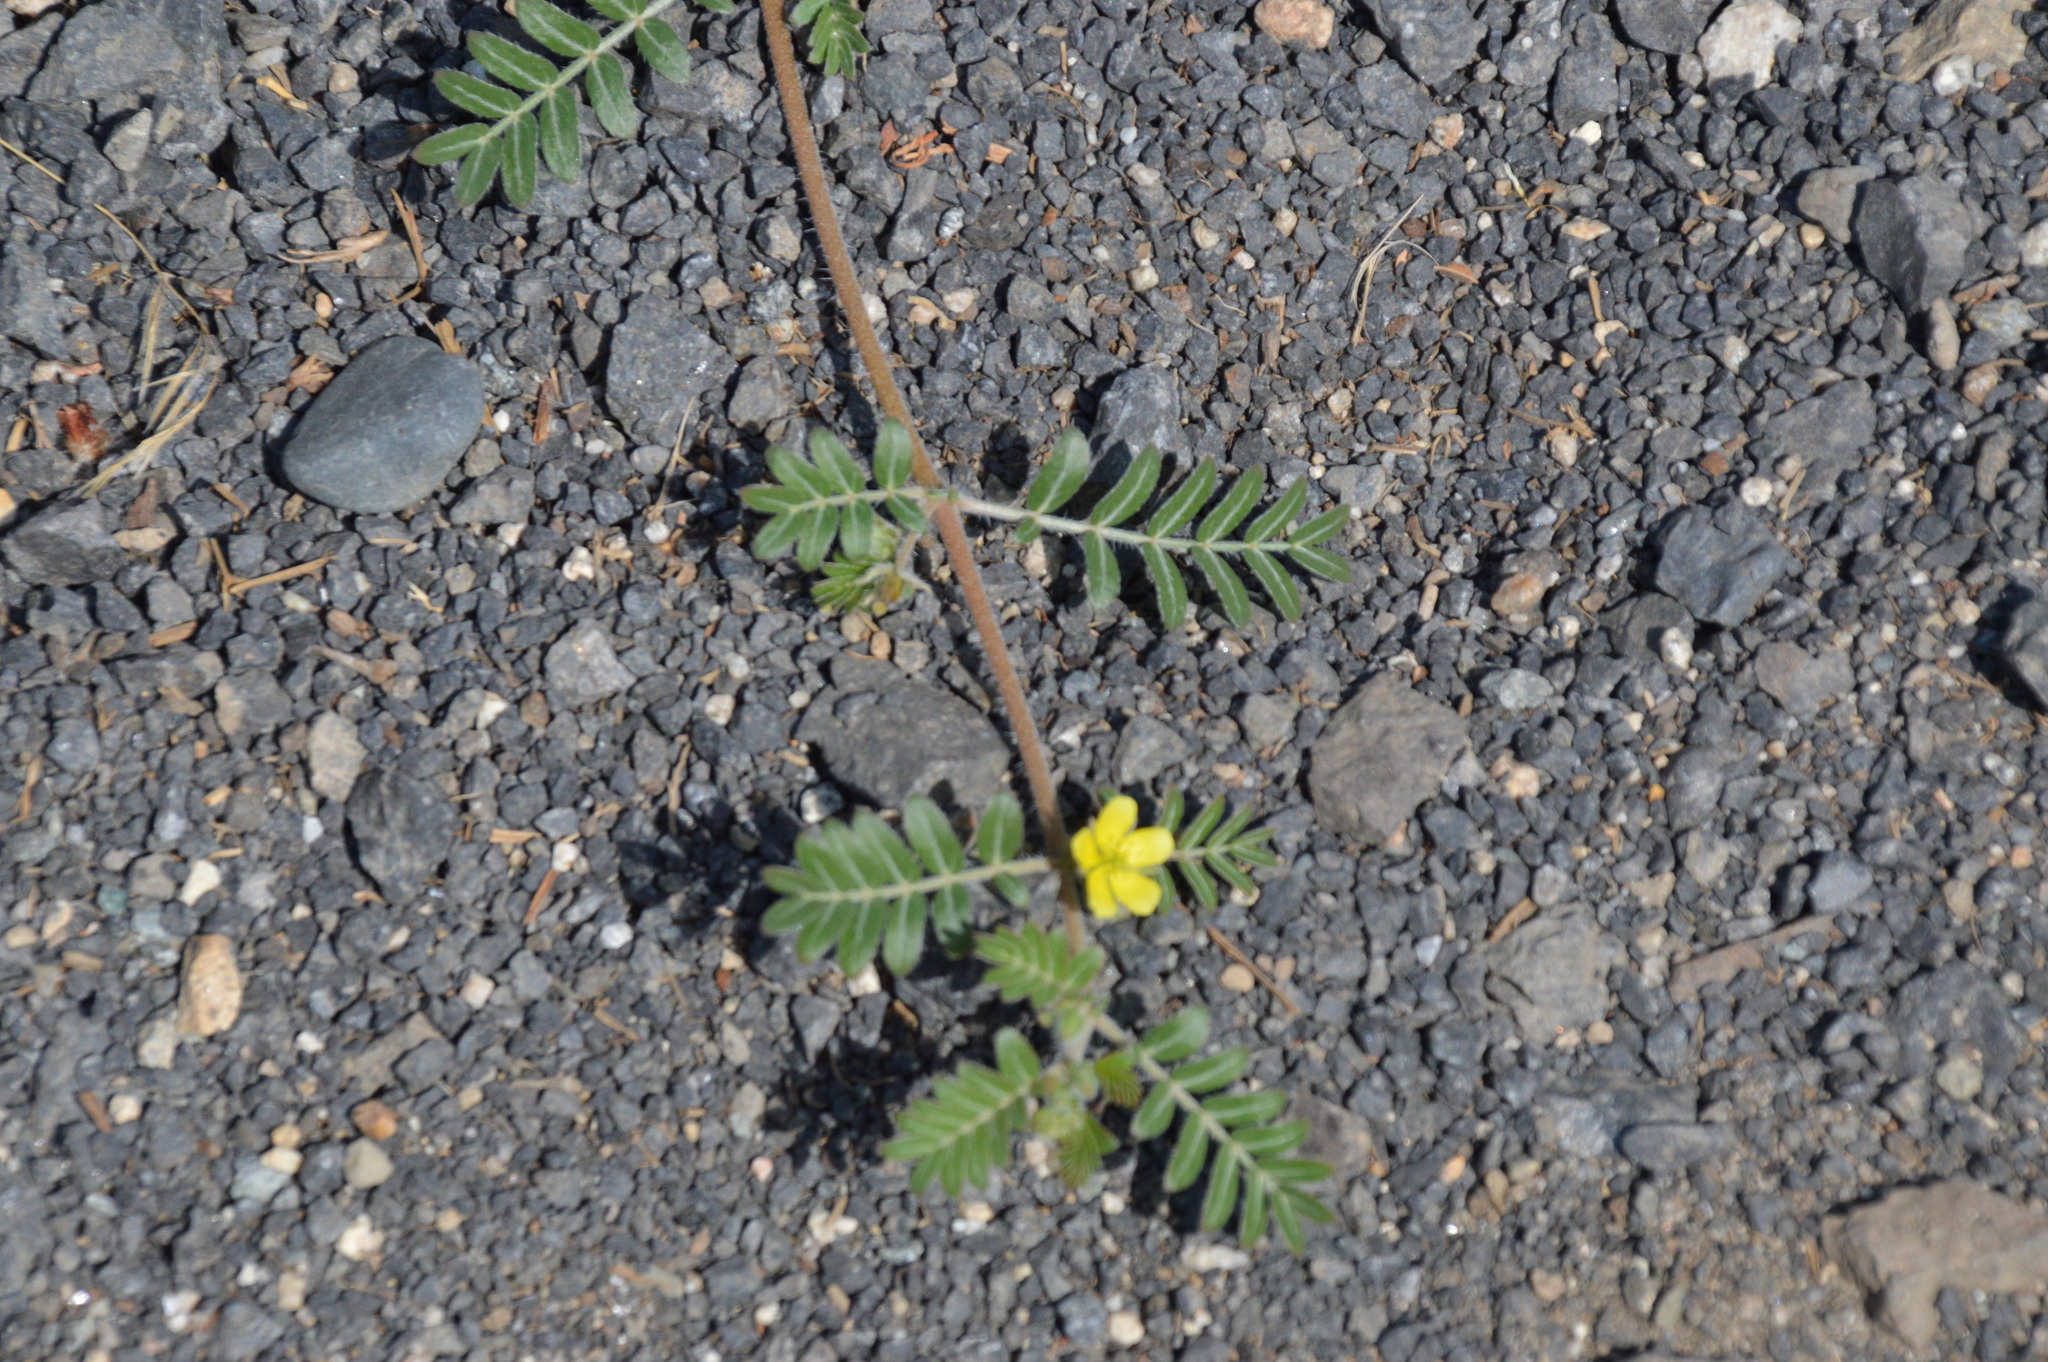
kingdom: Plantae
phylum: Tracheophyta
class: Magnoliopsida
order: Zygophyllales
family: Zygophyllaceae
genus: Tribulus
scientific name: Tribulus terrestris
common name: Puncturevine
